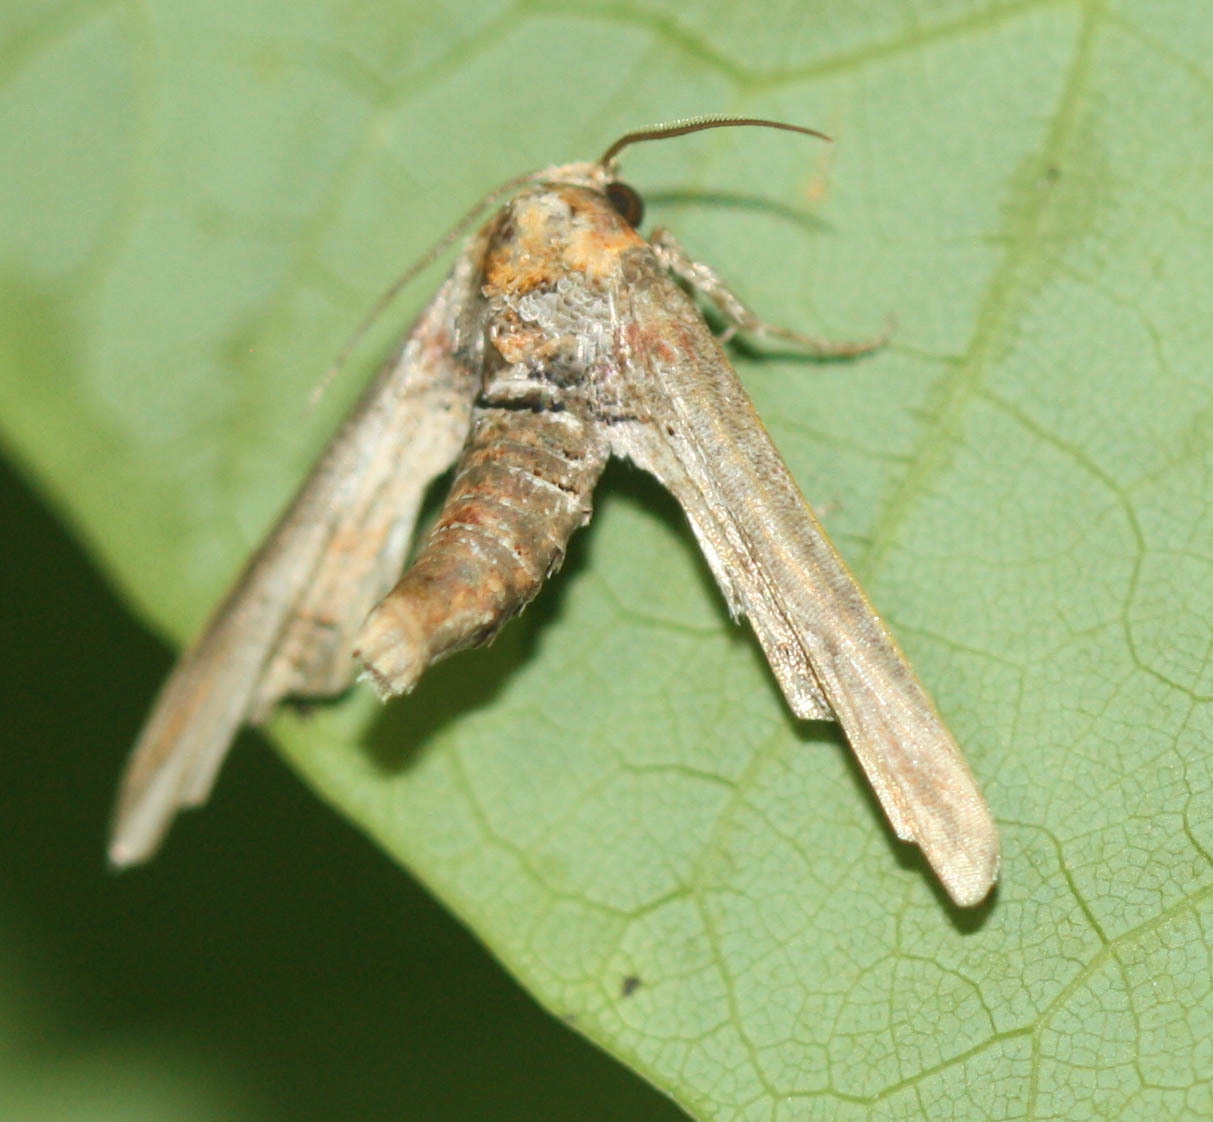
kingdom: Animalia
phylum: Arthropoda
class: Insecta
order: Lepidoptera
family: Euteliidae
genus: Marathyssa
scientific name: Marathyssa inficita
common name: Dark marathyssa moth
